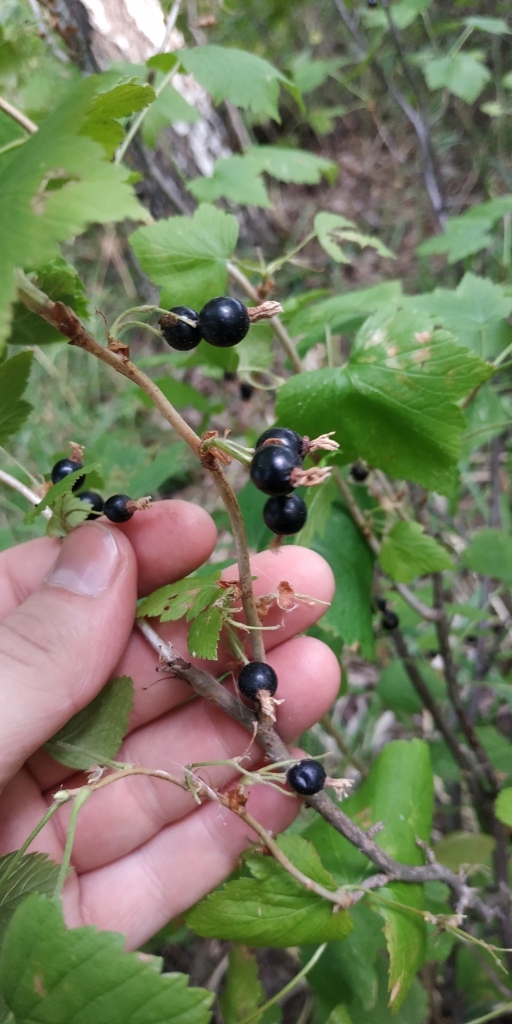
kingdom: Plantae
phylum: Tracheophyta
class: Magnoliopsida
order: Saxifragales
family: Grossulariaceae
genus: Ribes
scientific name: Ribes nigrum
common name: Black currant
